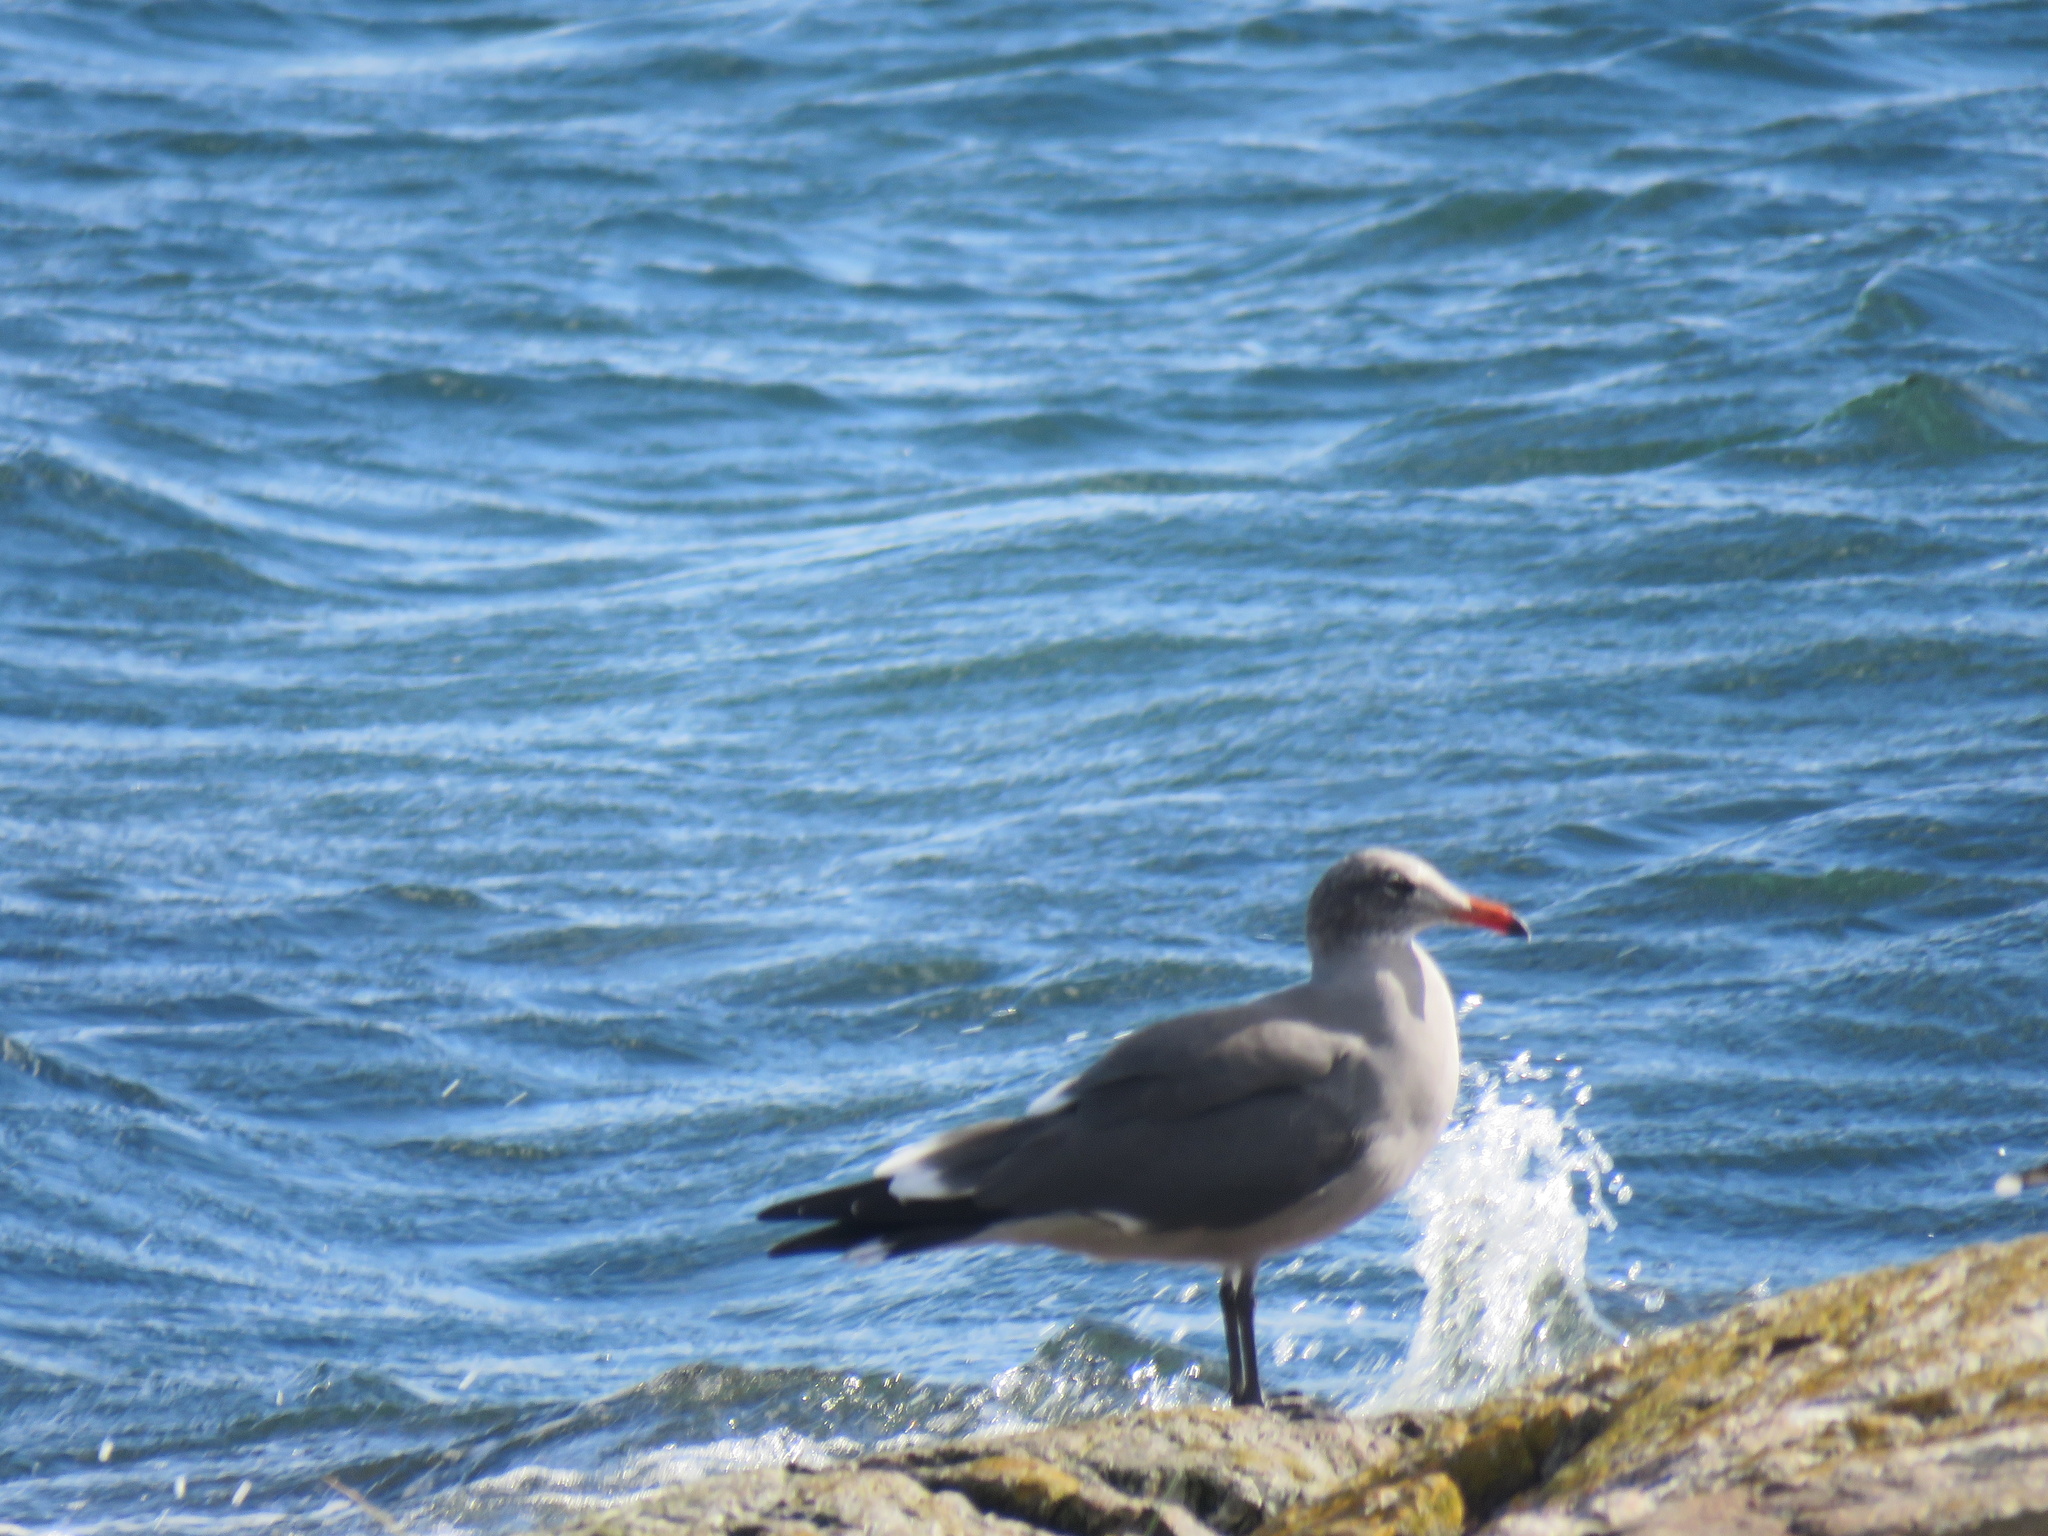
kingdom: Animalia
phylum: Chordata
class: Aves
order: Charadriiformes
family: Laridae
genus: Larus
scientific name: Larus heermanni
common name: Heermann's gull
